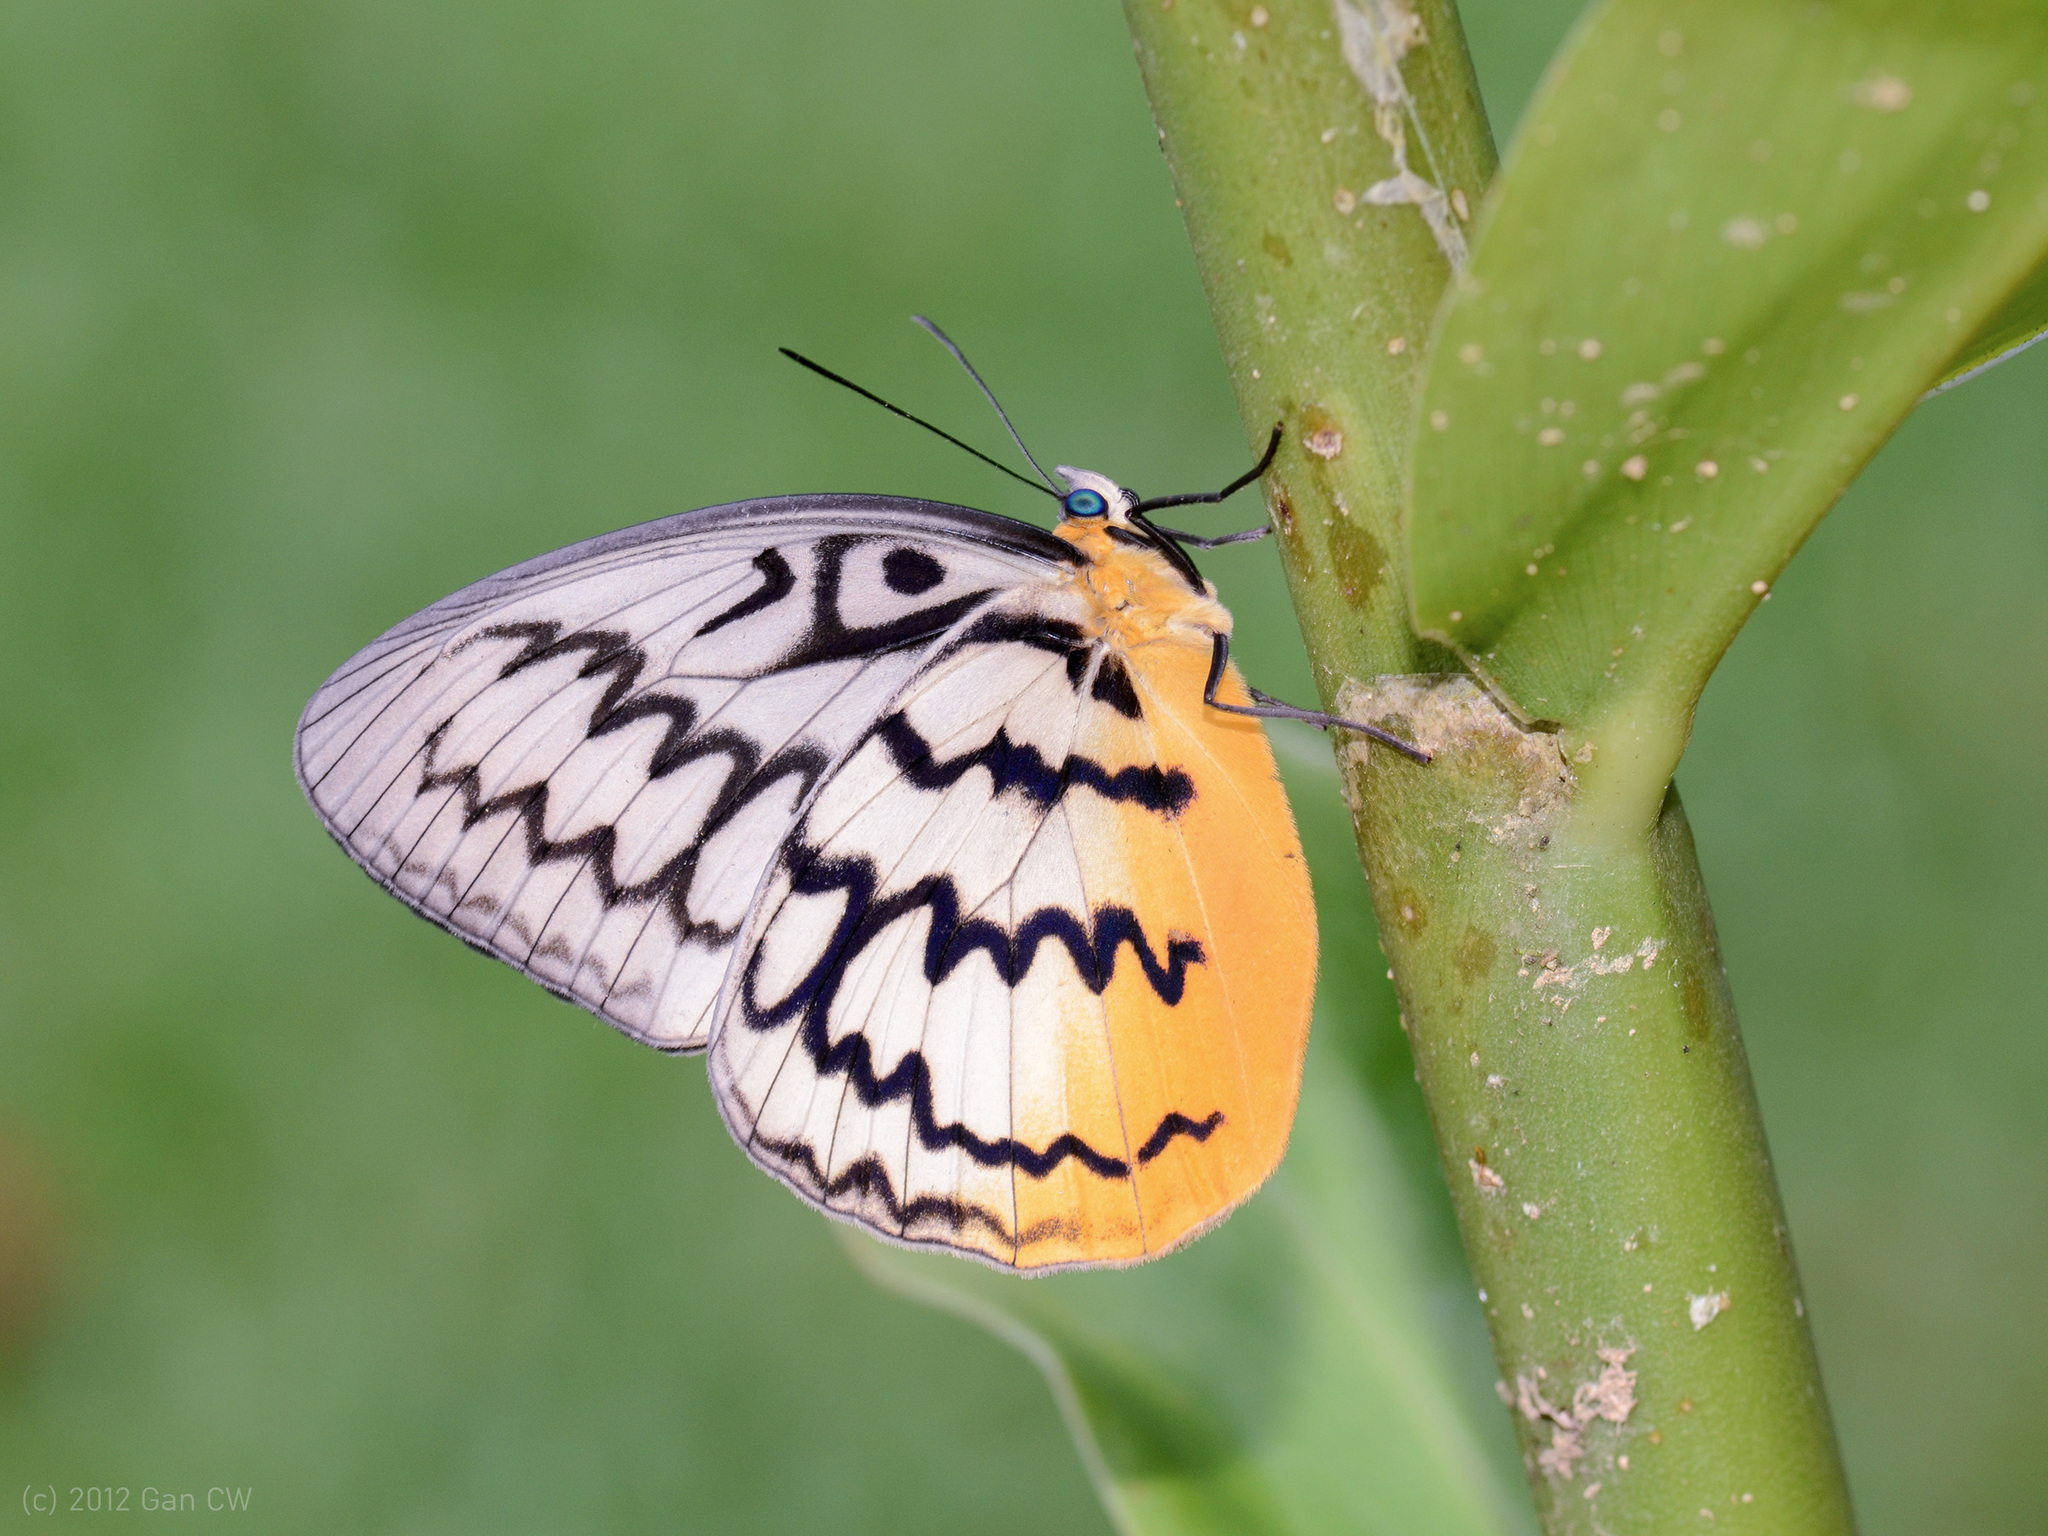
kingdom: Animalia
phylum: Arthropoda
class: Insecta
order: Lepidoptera
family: Nymphalidae
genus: Faunis
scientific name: Faunis Melanocyma faunula
